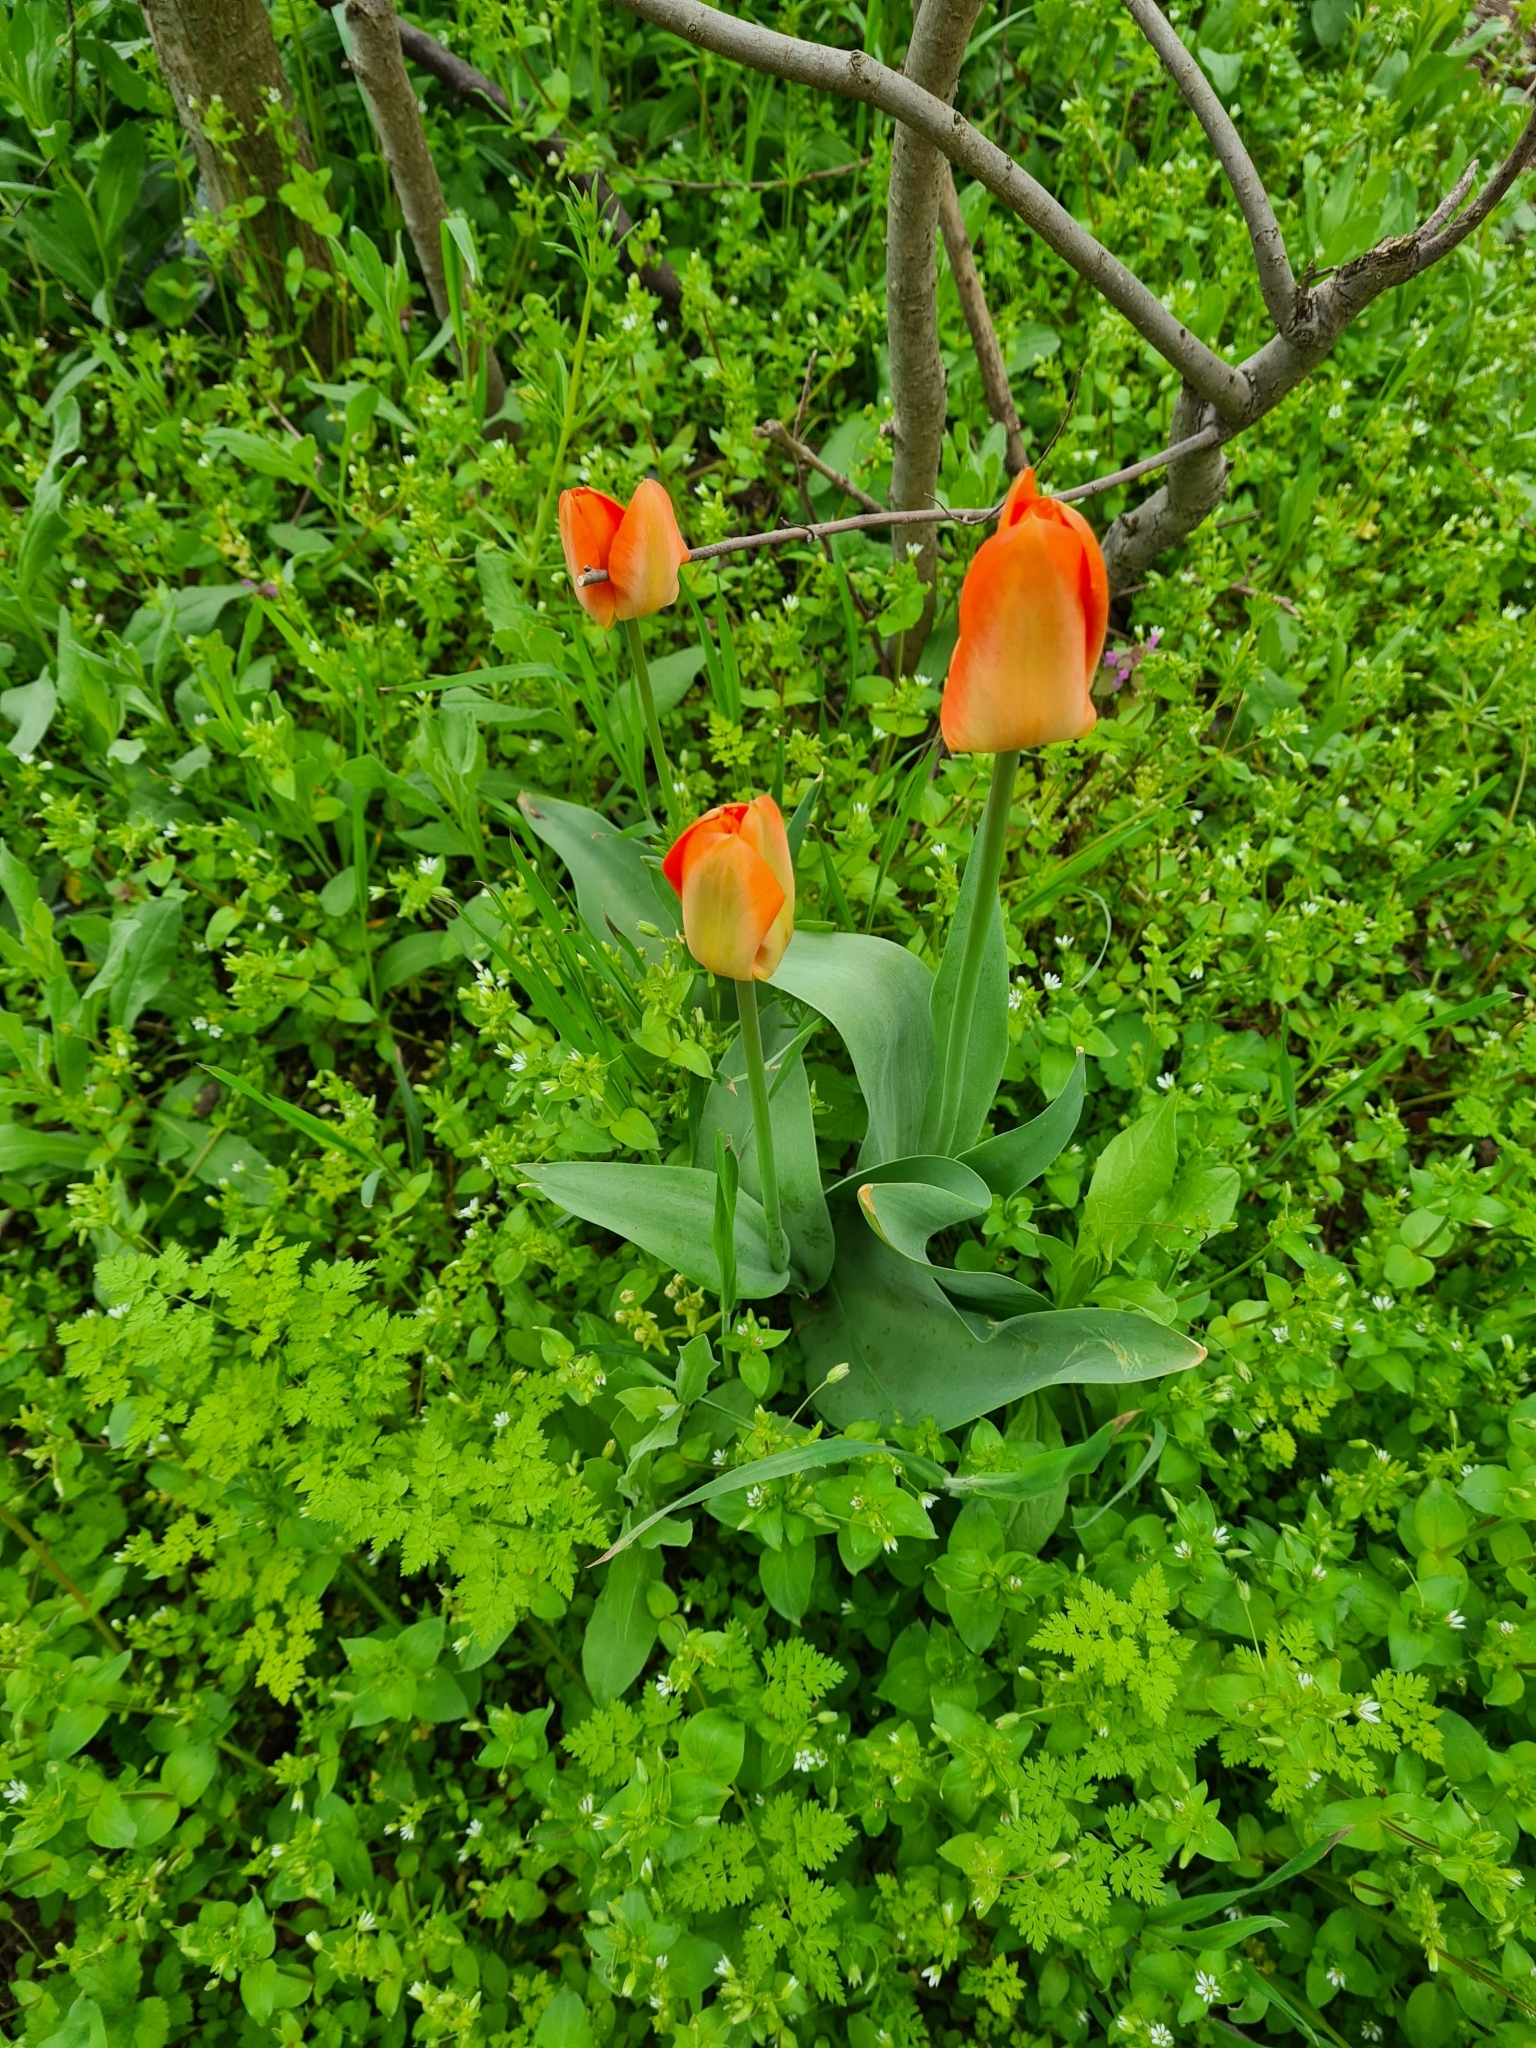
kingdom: Plantae
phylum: Tracheophyta
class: Liliopsida
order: Liliales
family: Liliaceae
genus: Tulipa
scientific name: Tulipa gesneriana
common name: Garden tulip
